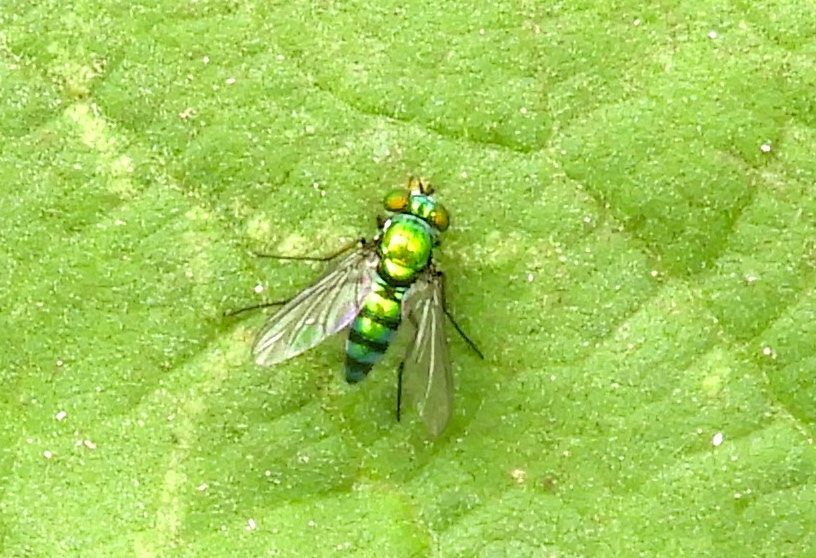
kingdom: Animalia
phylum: Arthropoda
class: Insecta
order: Diptera
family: Dolichopodidae
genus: Condylostylus
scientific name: Condylostylus
